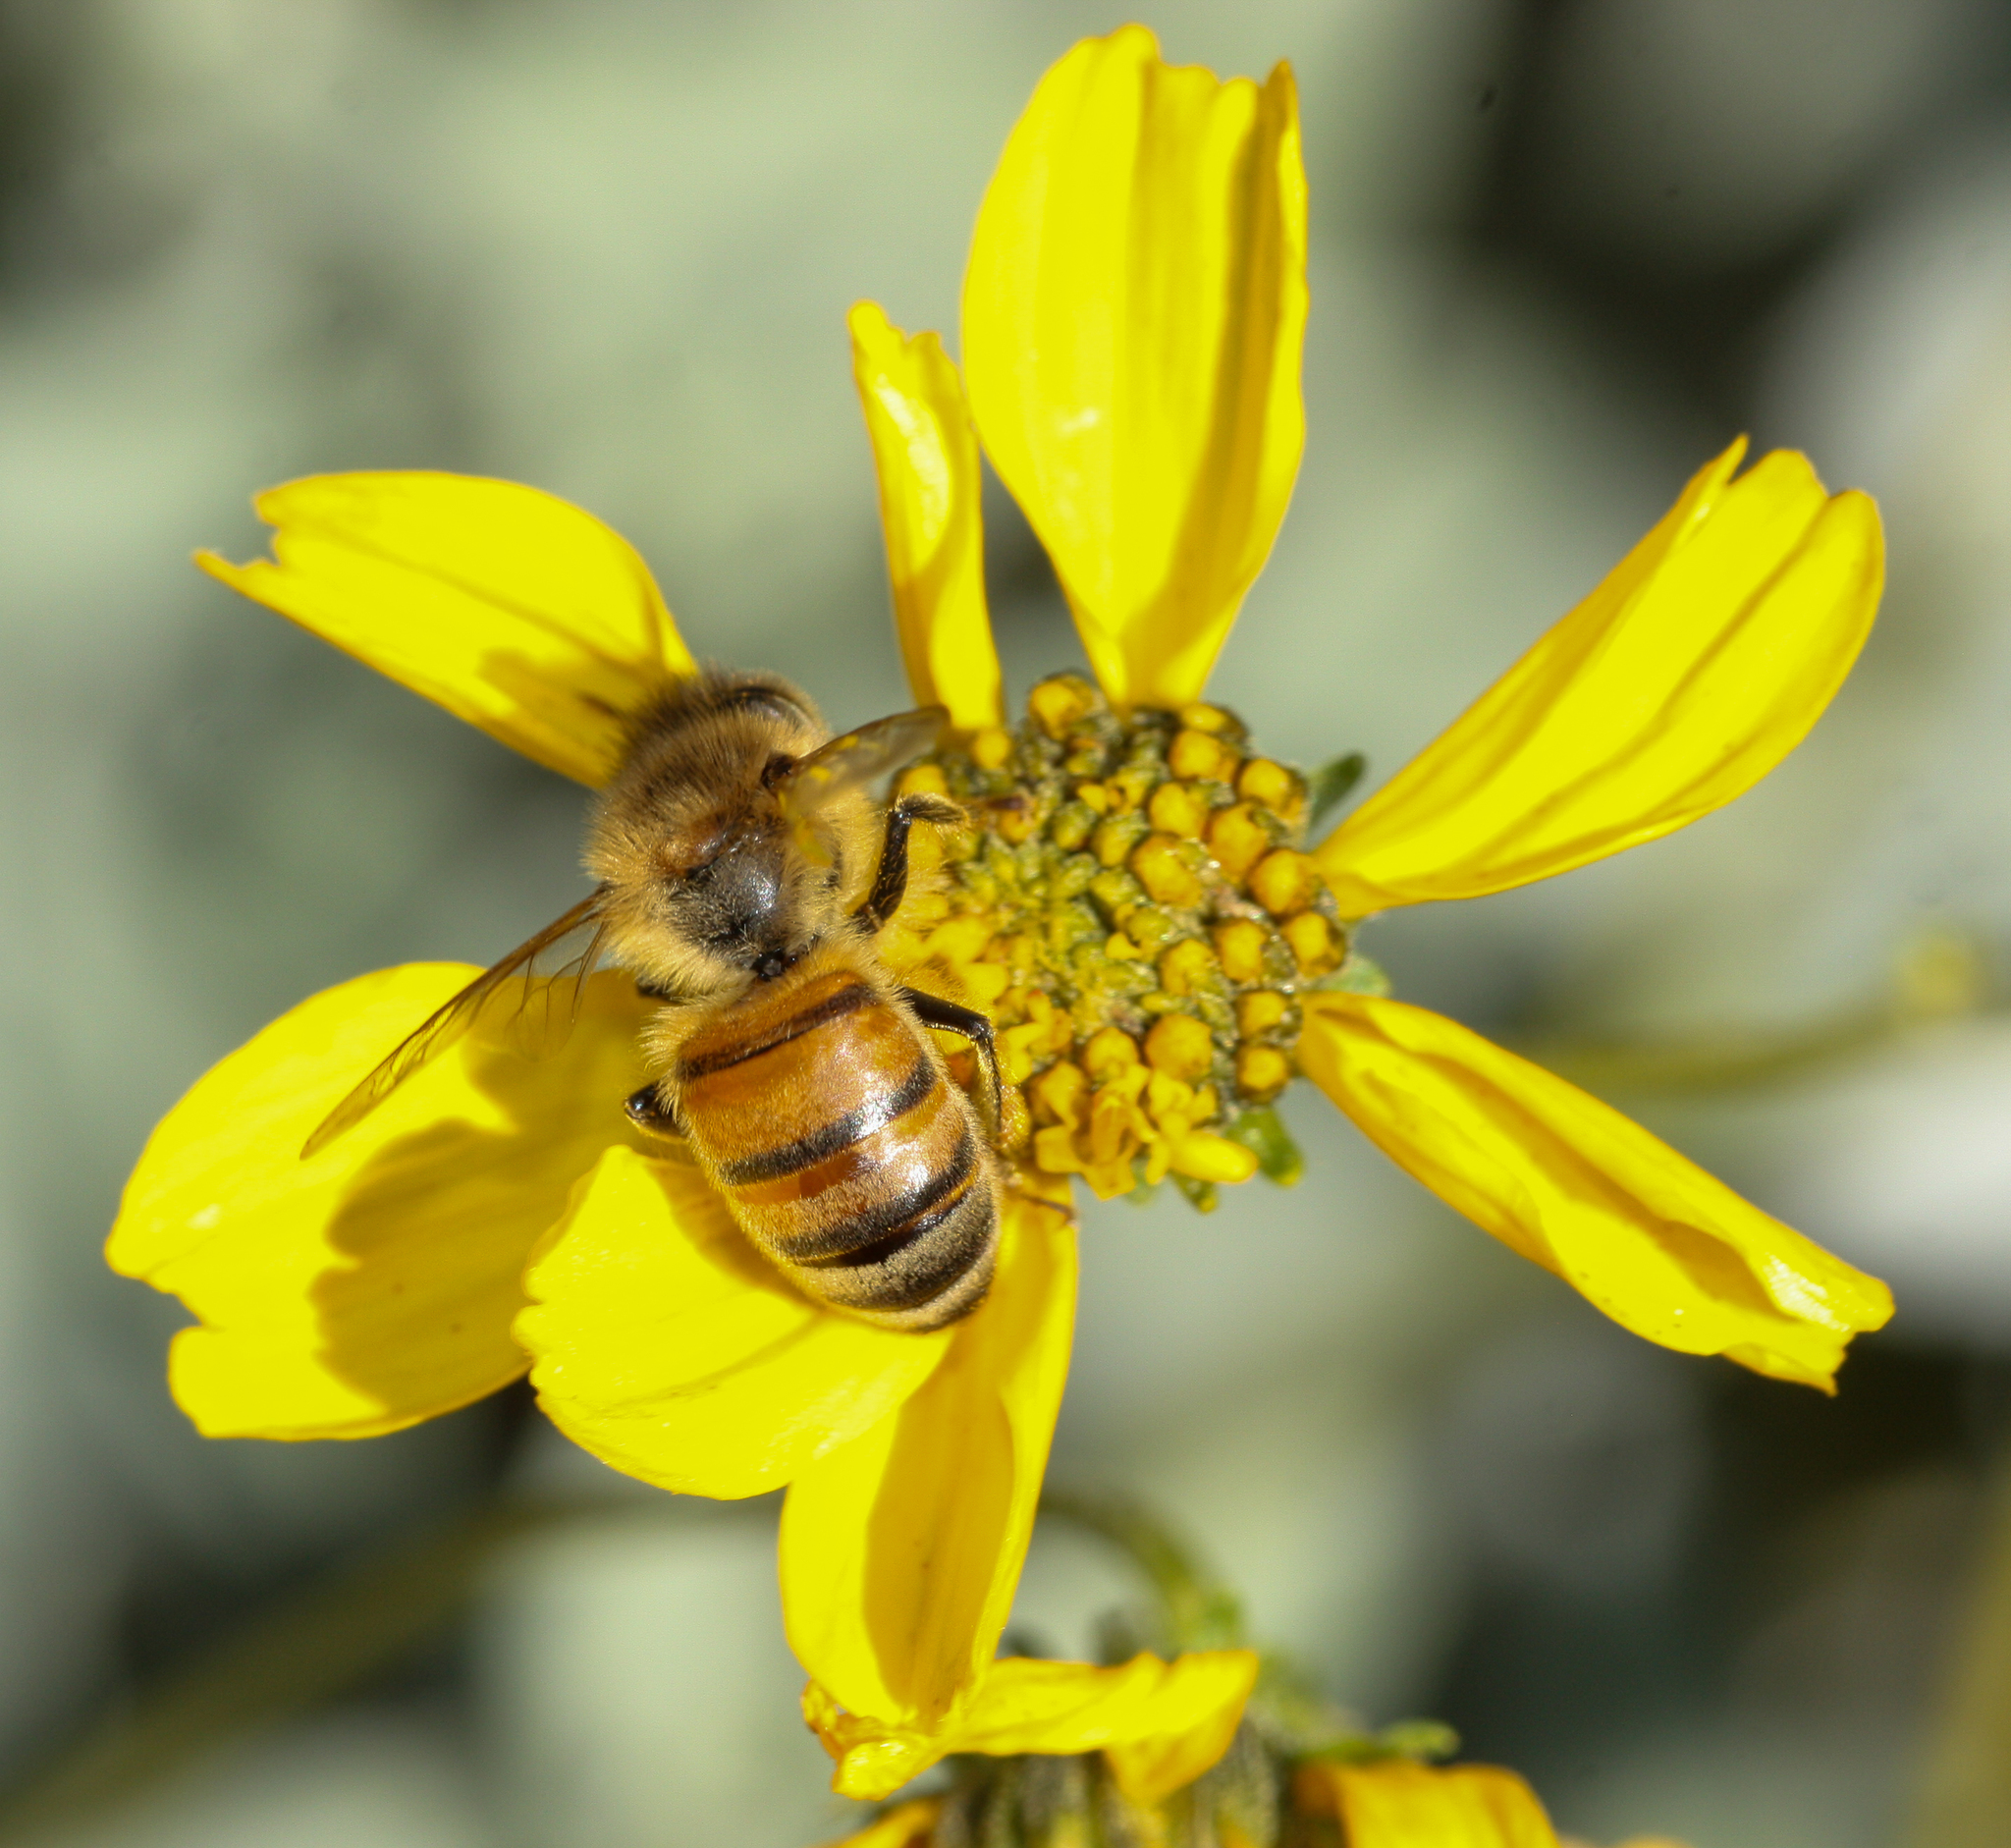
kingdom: Animalia
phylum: Arthropoda
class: Insecta
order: Hymenoptera
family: Apidae
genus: Apis
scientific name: Apis mellifera
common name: Honey bee
